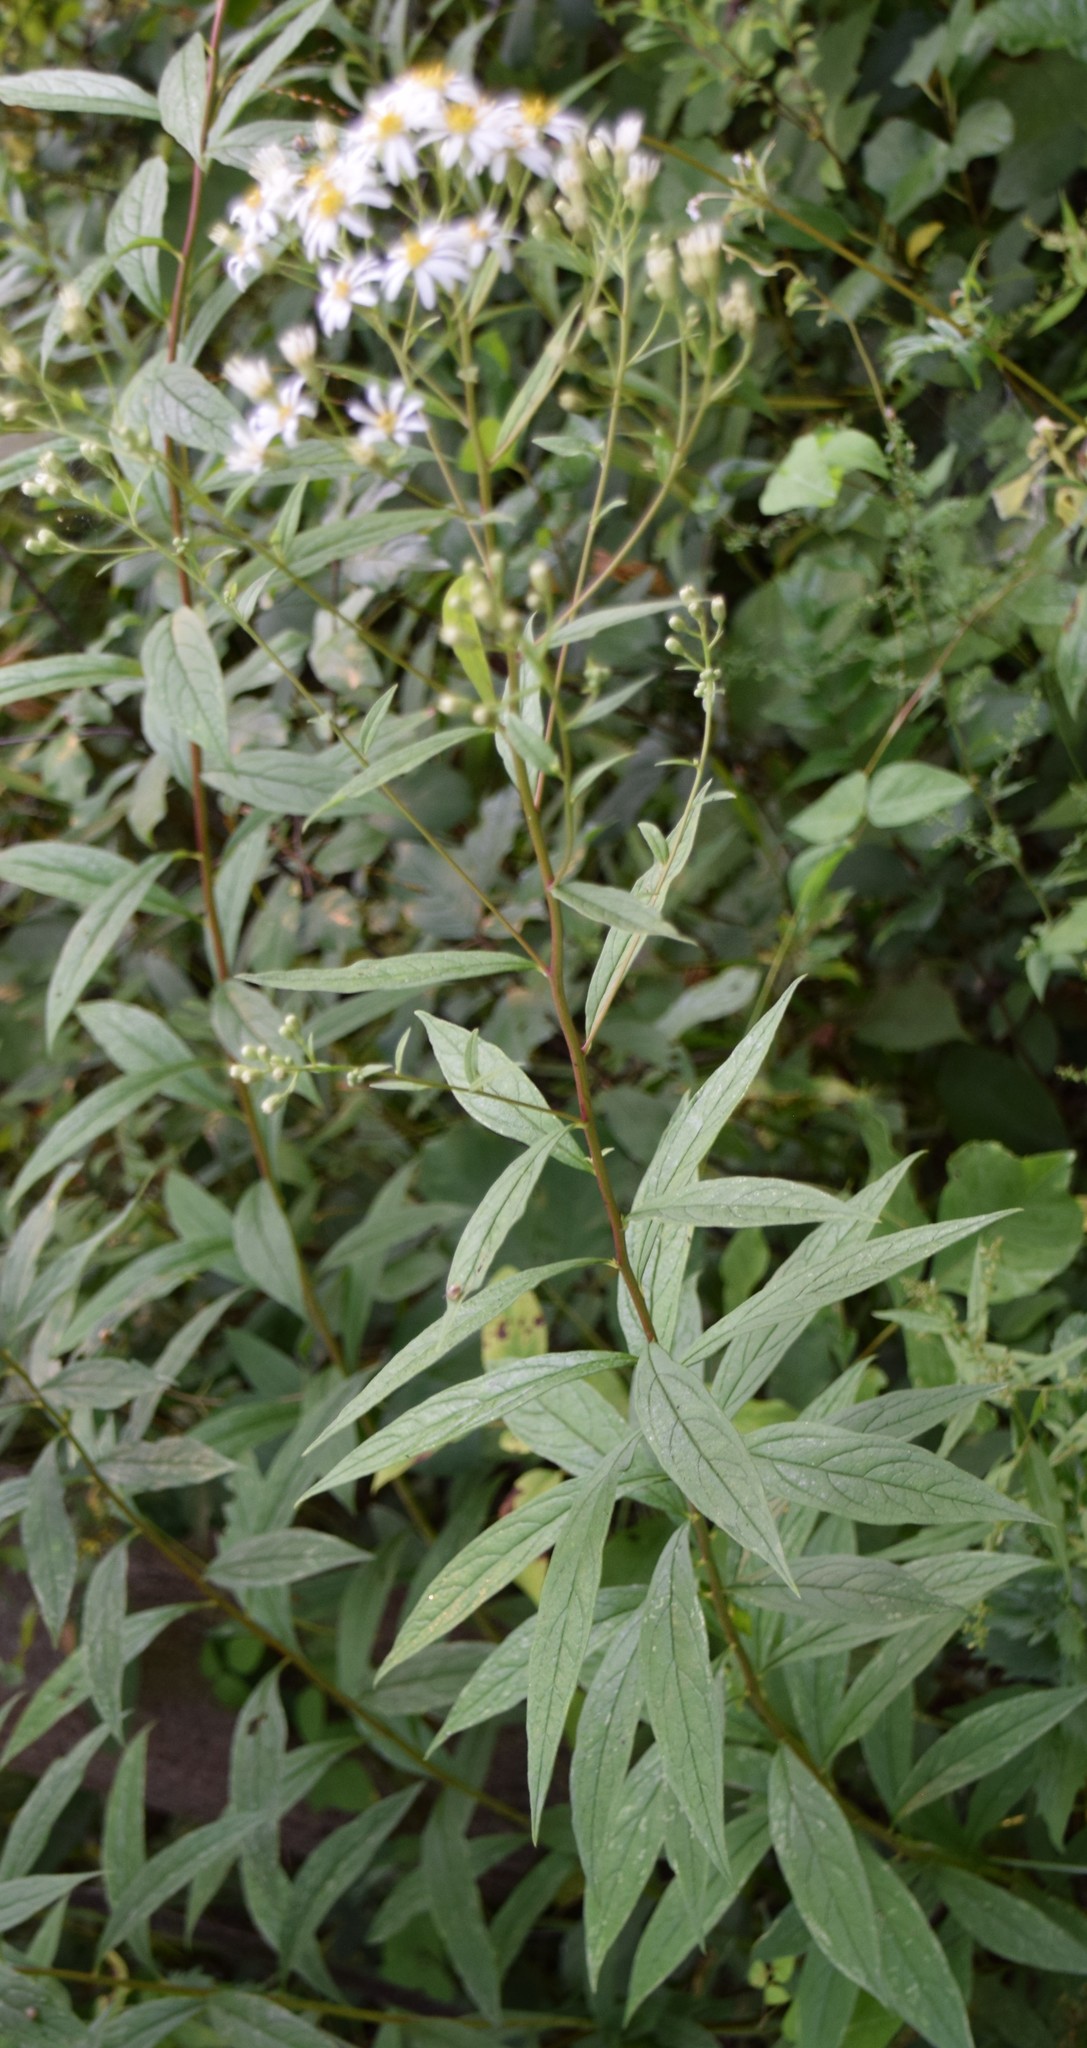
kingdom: Plantae
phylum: Tracheophyta
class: Magnoliopsida
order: Asterales
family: Asteraceae
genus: Doellingeria
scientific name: Doellingeria umbellata
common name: Flat-top white aster
